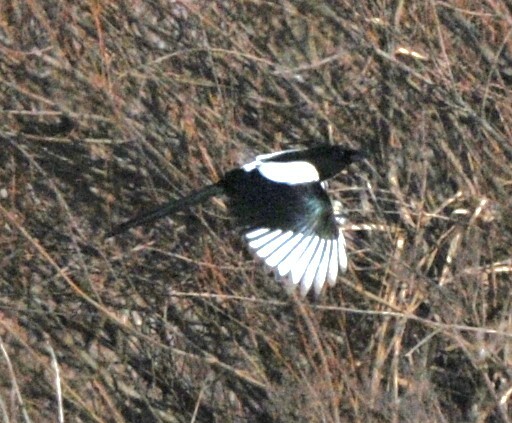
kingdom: Animalia
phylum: Chordata
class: Aves
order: Passeriformes
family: Corvidae
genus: Pica
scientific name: Pica pica
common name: Eurasian magpie
